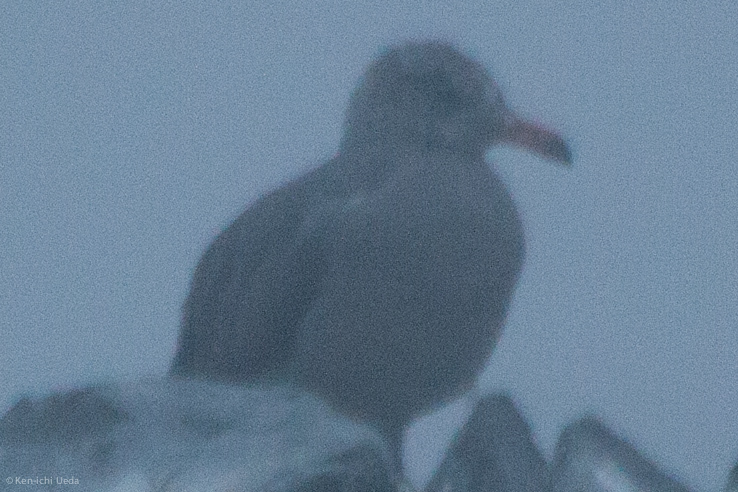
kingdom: Animalia
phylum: Chordata
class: Aves
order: Charadriiformes
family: Laridae
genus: Larus
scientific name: Larus heermanni
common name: Heermann's gull
